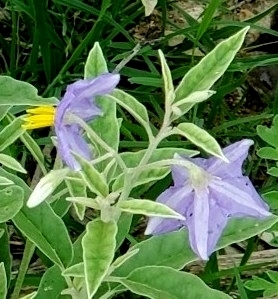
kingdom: Plantae
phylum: Tracheophyta
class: Magnoliopsida
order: Solanales
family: Solanaceae
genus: Solanum
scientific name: Solanum elaeagnifolium
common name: Silverleaf nightshade
